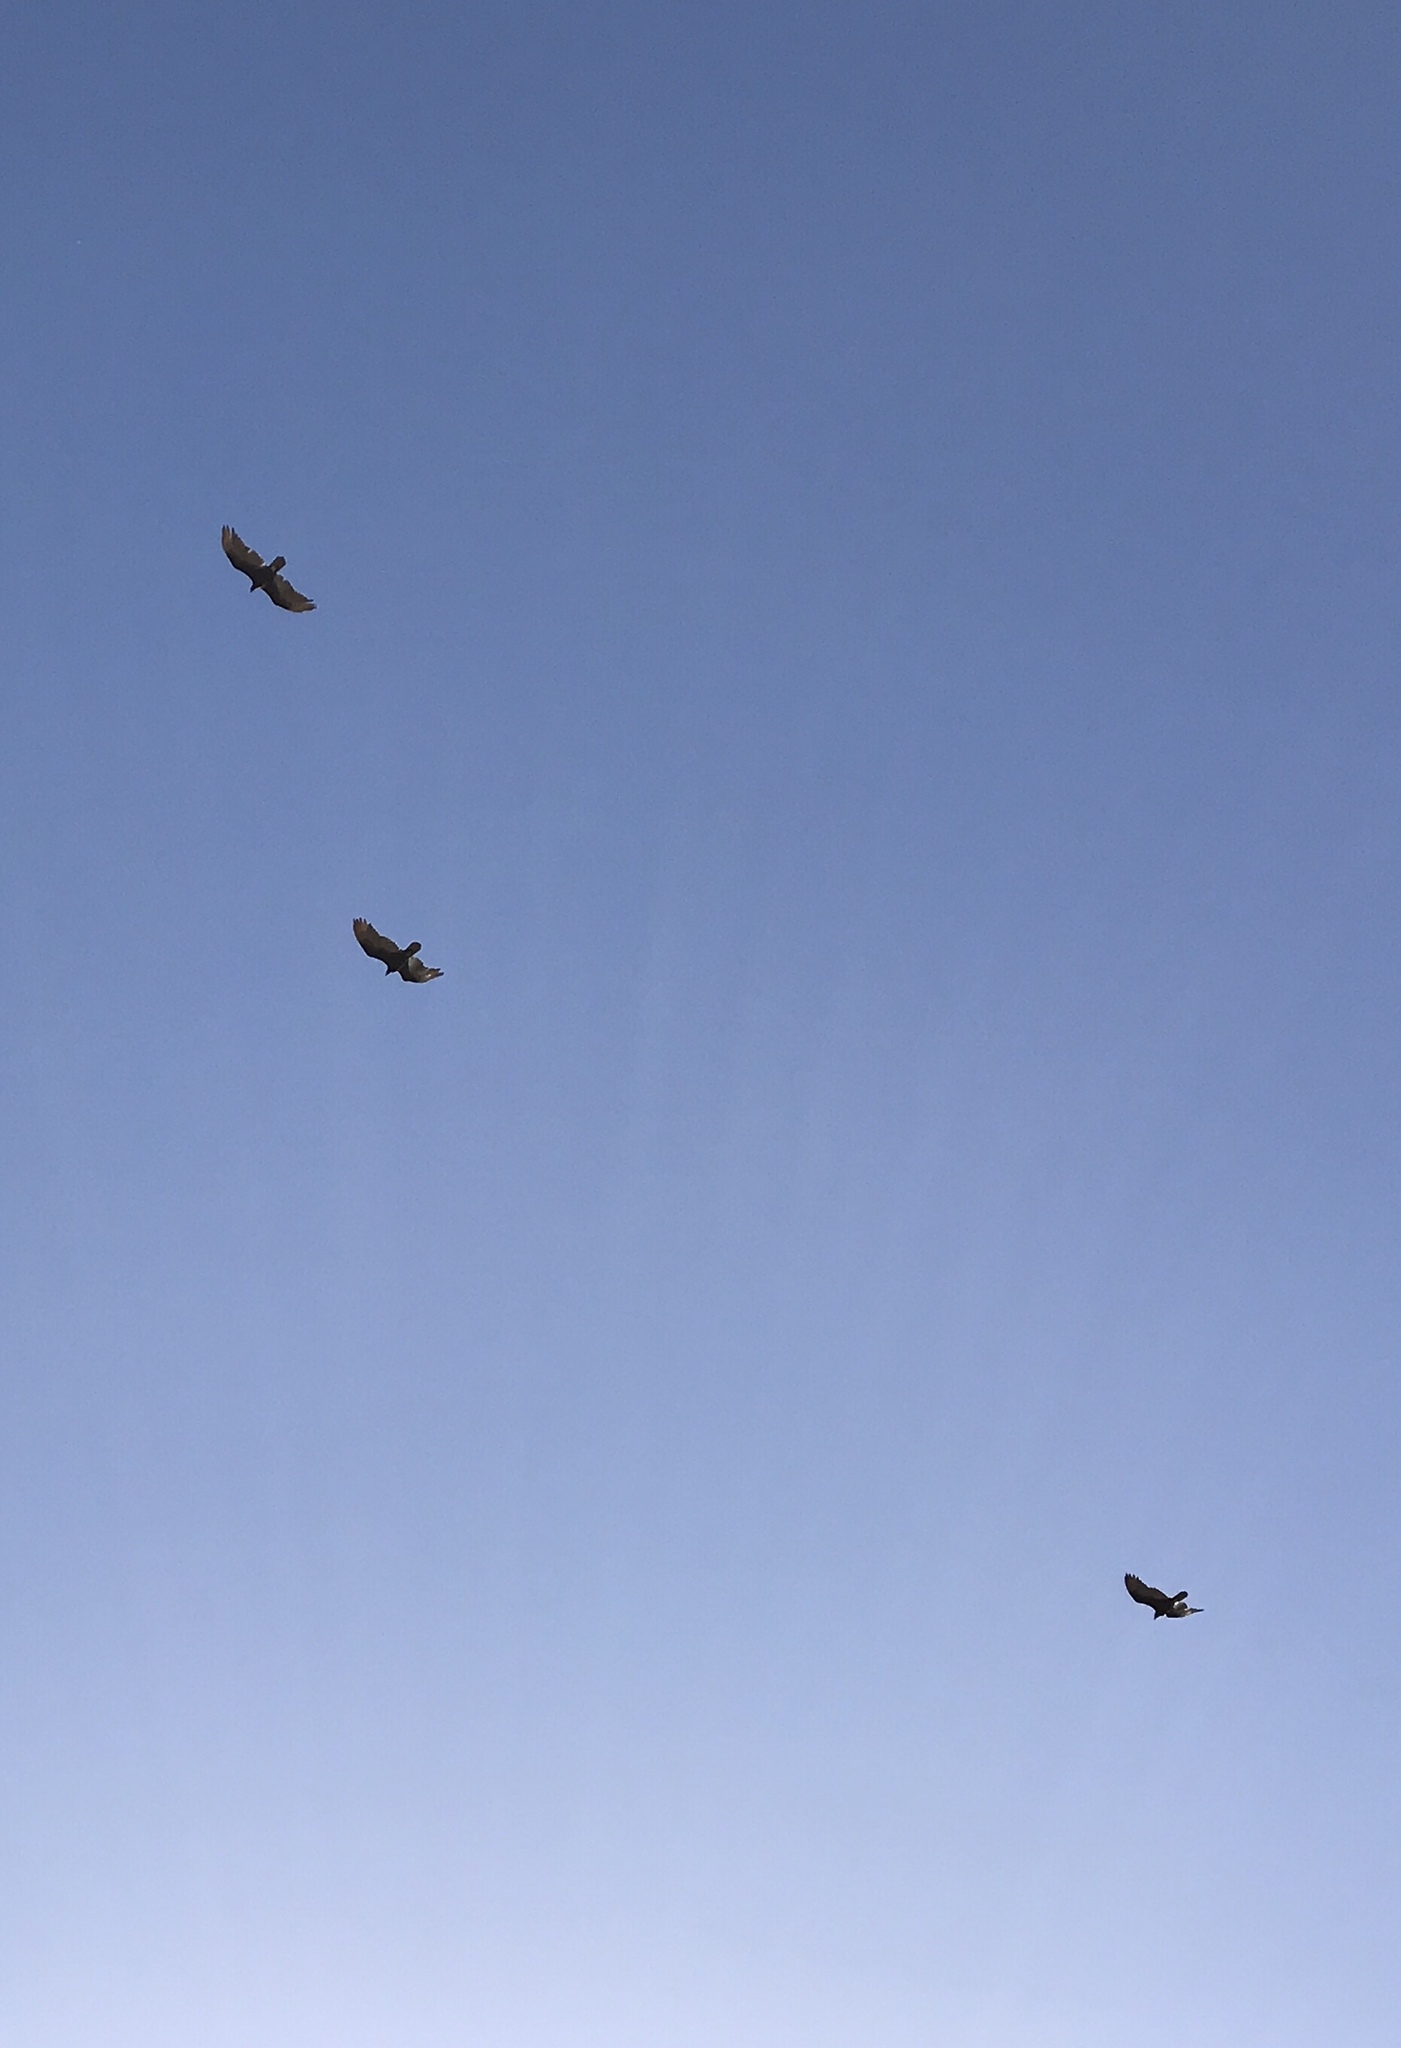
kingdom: Animalia
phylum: Chordata
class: Aves
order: Accipitriformes
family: Cathartidae
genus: Cathartes
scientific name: Cathartes aura
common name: Turkey vulture
